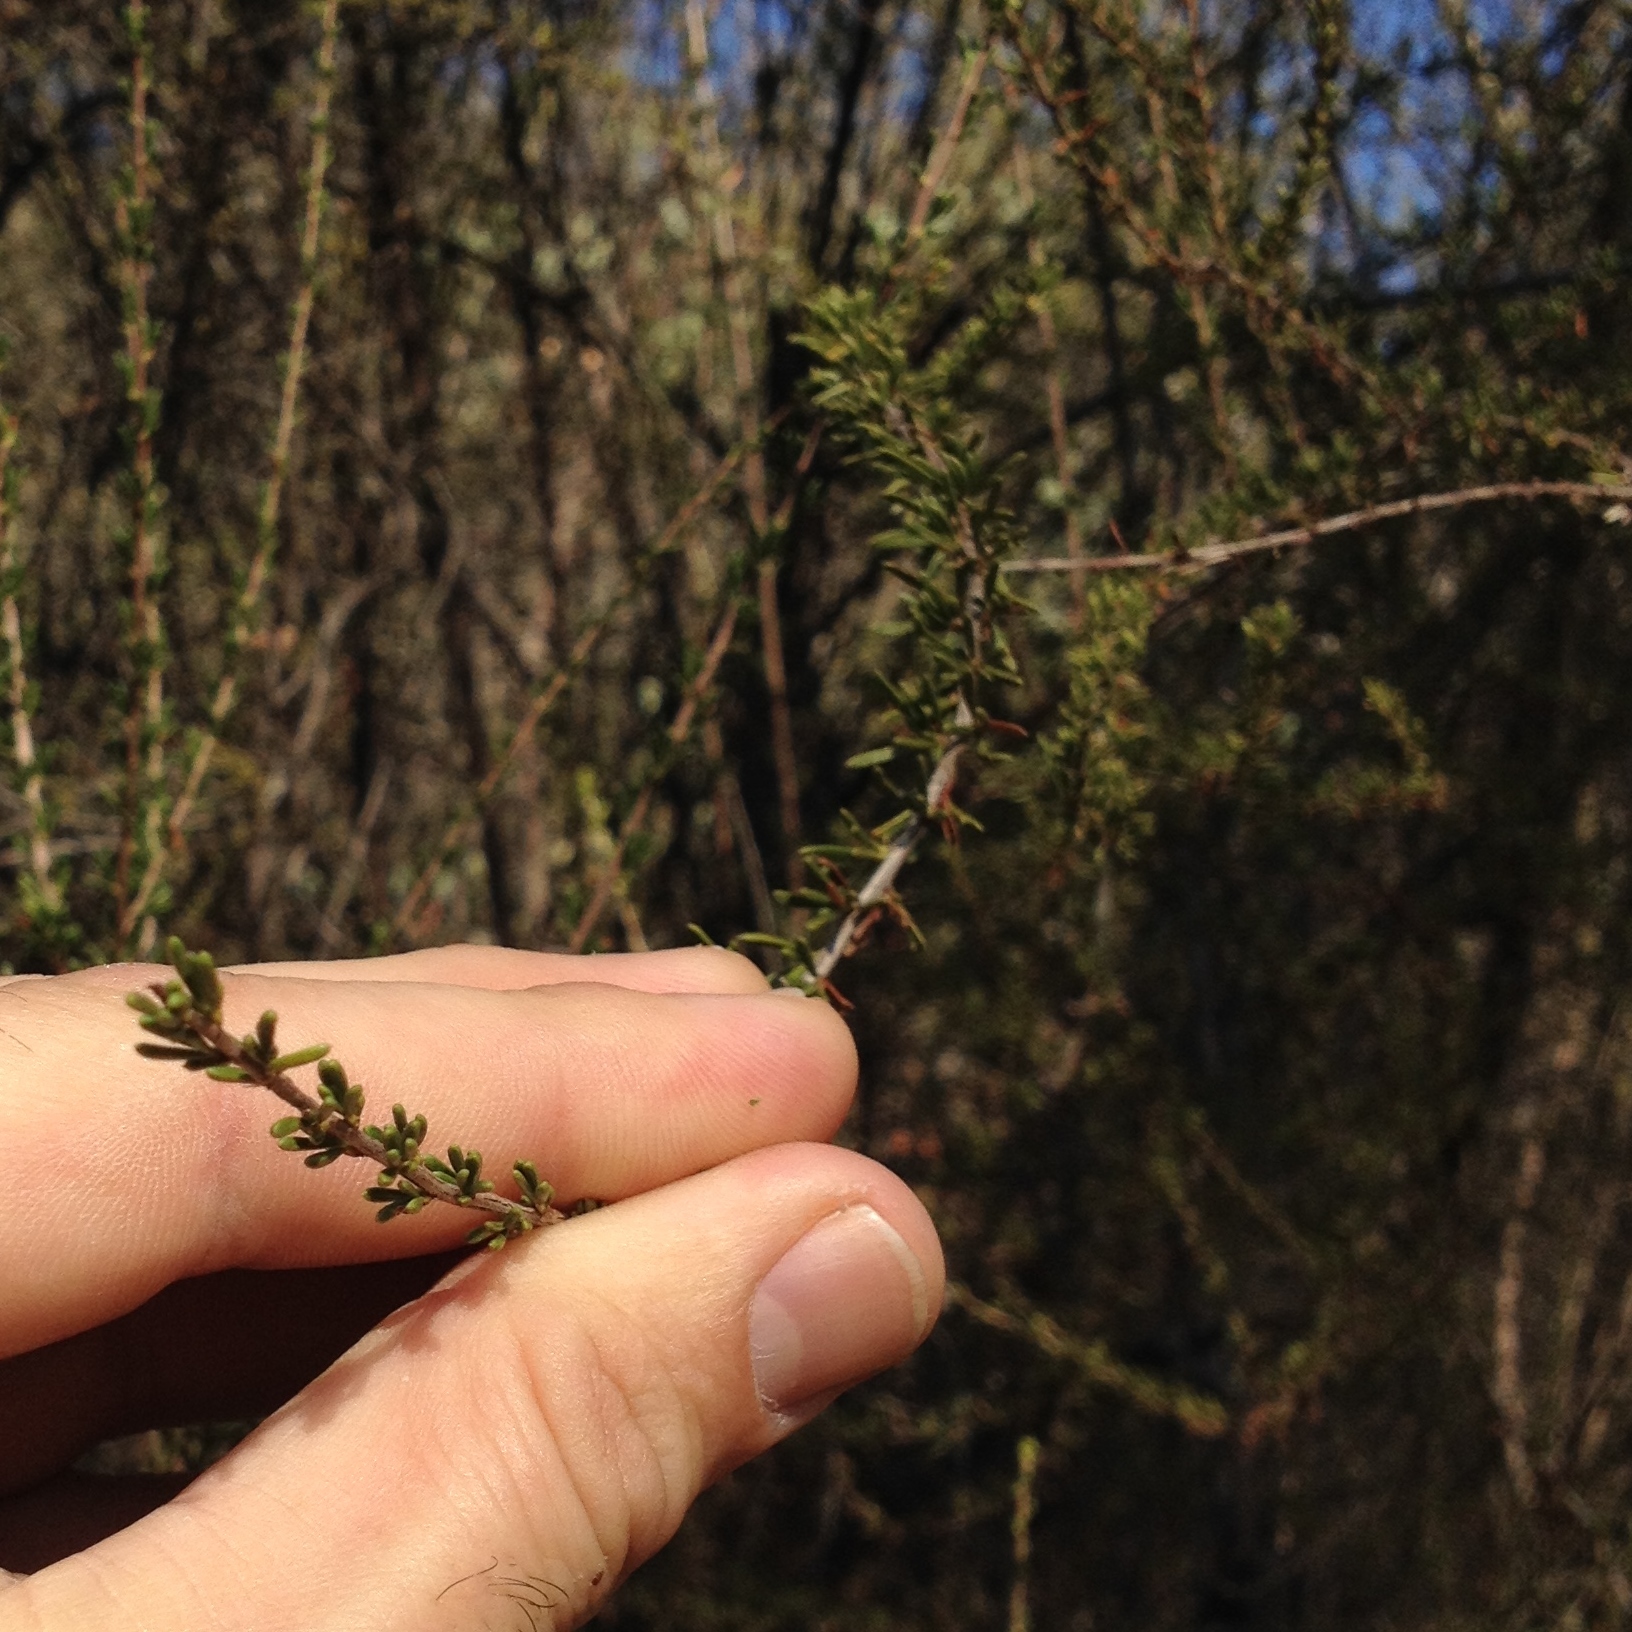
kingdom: Plantae
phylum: Tracheophyta
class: Magnoliopsida
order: Rosales
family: Rosaceae
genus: Adenostoma
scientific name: Adenostoma fasciculatum
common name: Chamise
